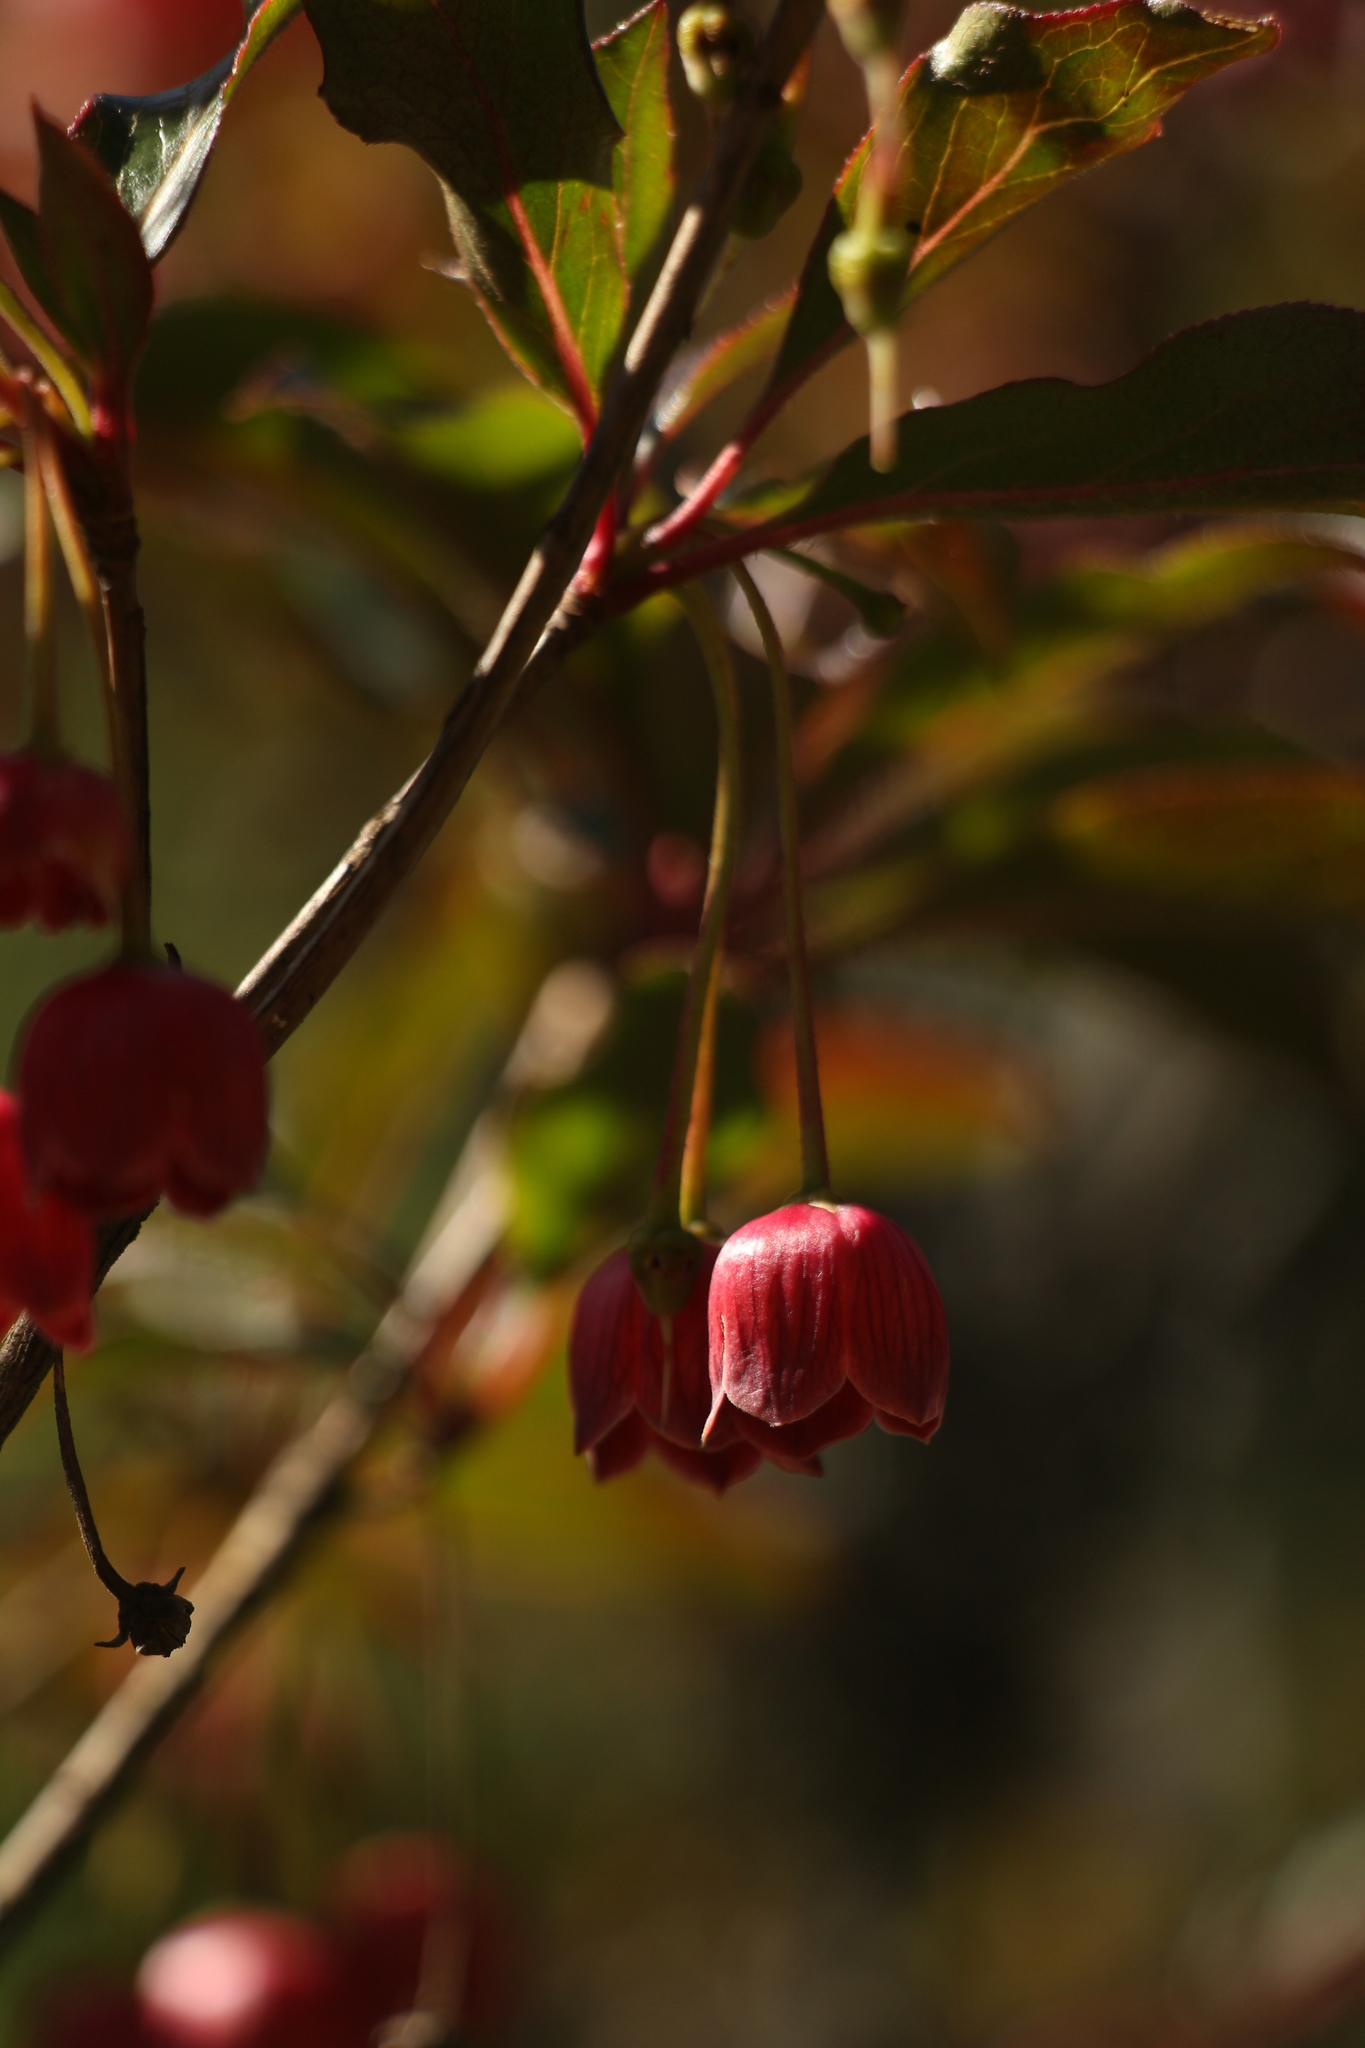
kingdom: Plantae
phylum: Tracheophyta
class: Magnoliopsida
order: Ericales
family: Ericaceae
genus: Enkianthus
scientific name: Enkianthus deflexus
